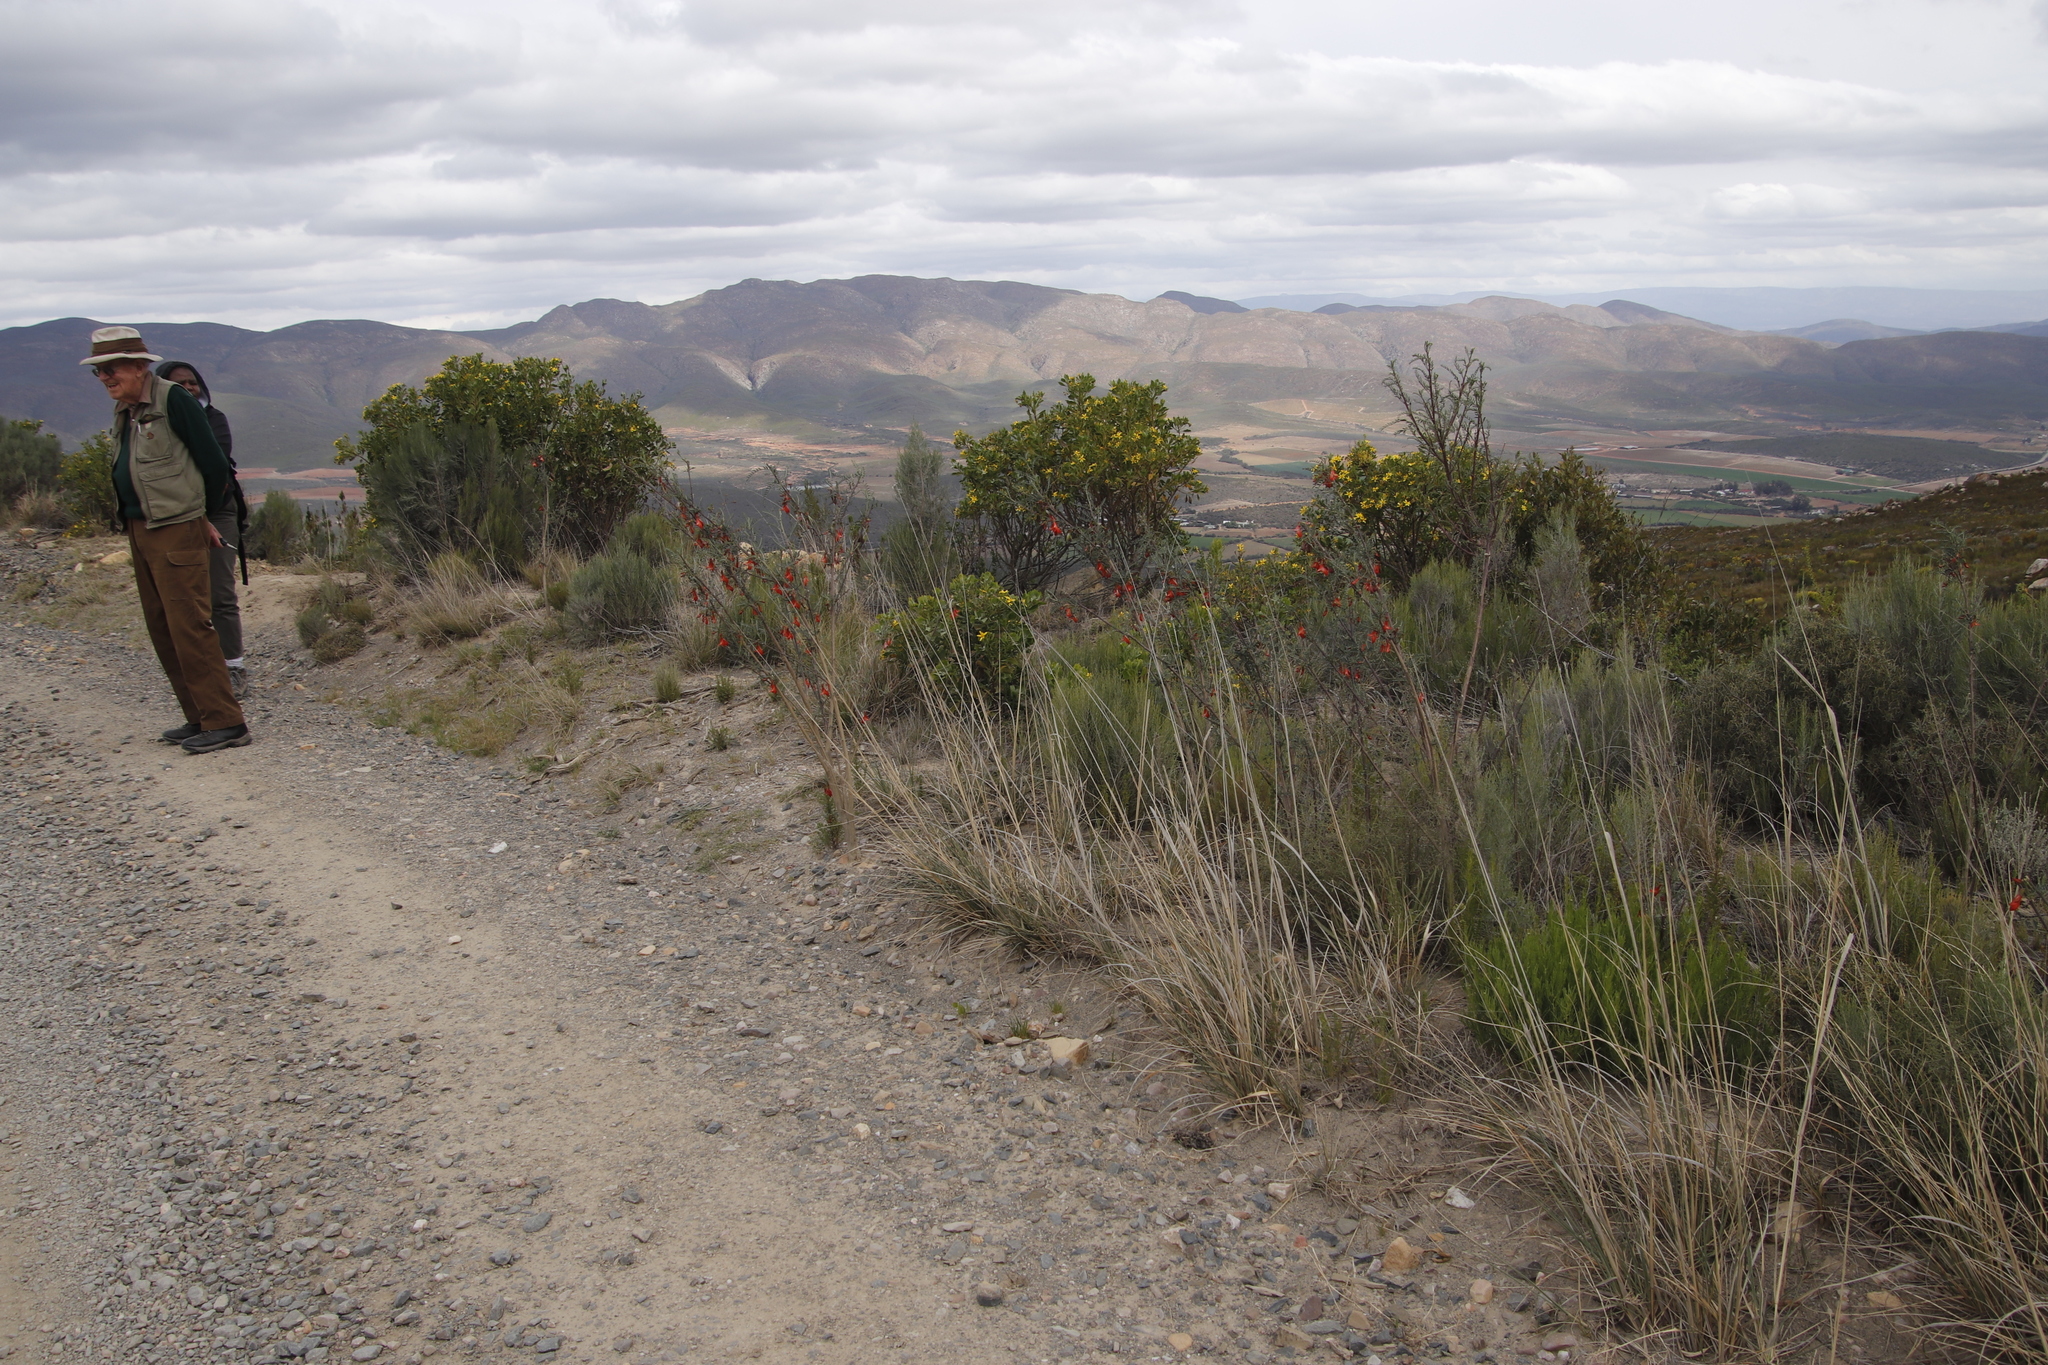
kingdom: Plantae
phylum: Tracheophyta
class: Magnoliopsida
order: Fabales
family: Fabaceae
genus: Lessertia
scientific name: Lessertia frutescens
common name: Balloon-pea
